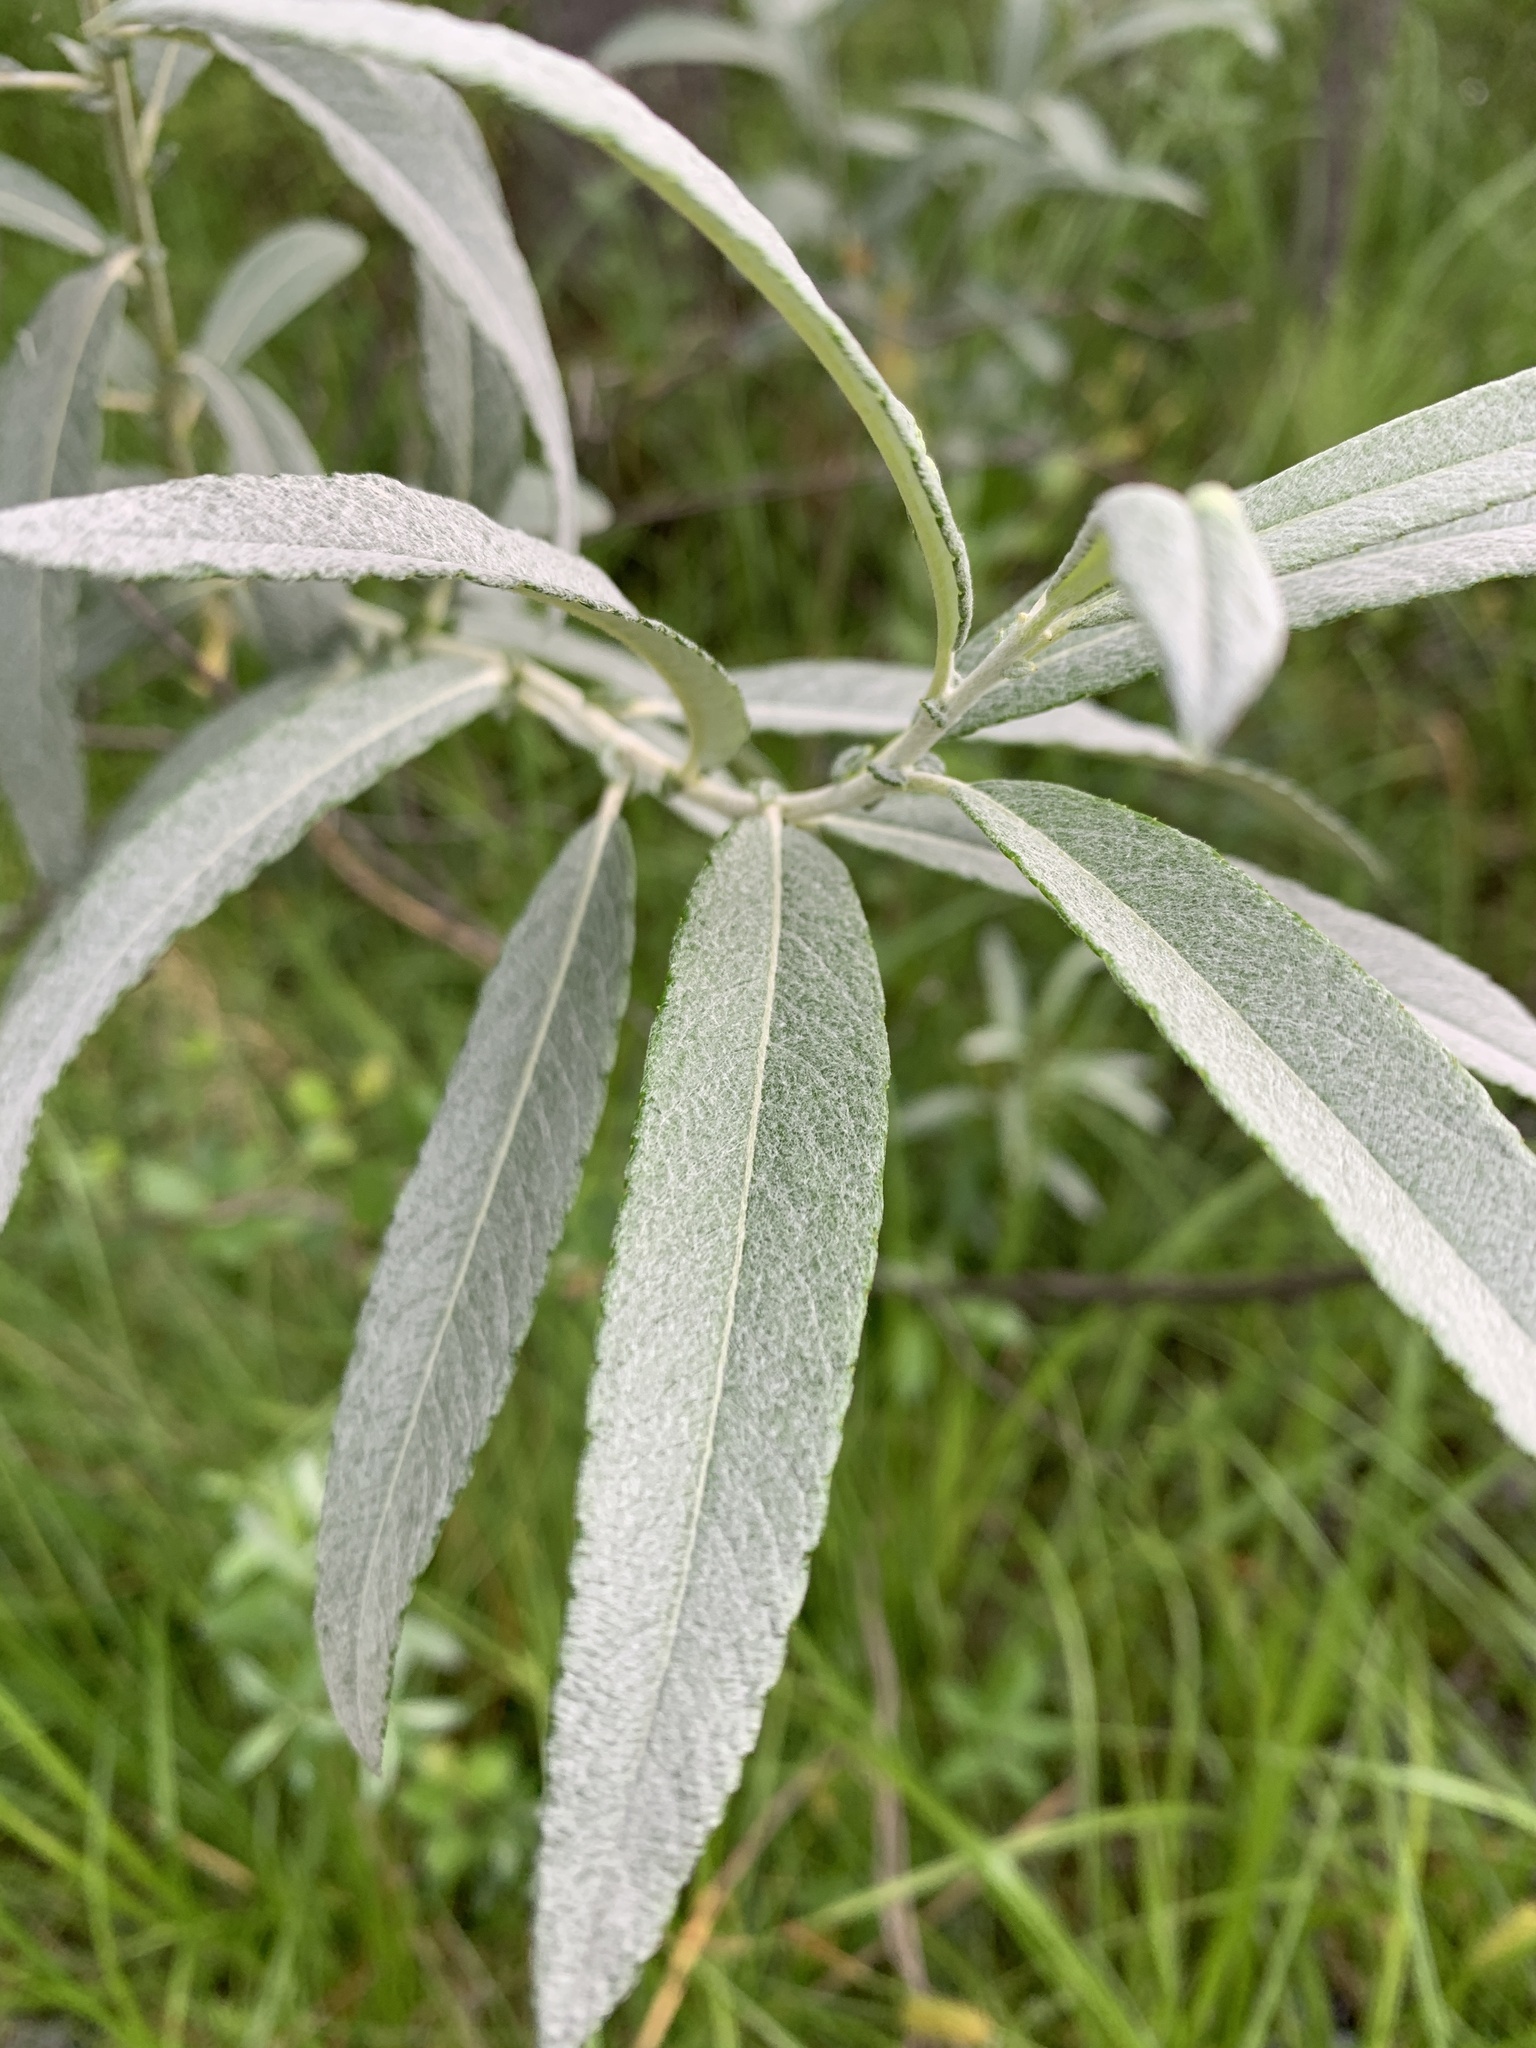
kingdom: Plantae
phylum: Tracheophyta
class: Magnoliopsida
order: Malpighiales
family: Salicaceae
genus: Salix
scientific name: Salix candida
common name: Hoary willow
